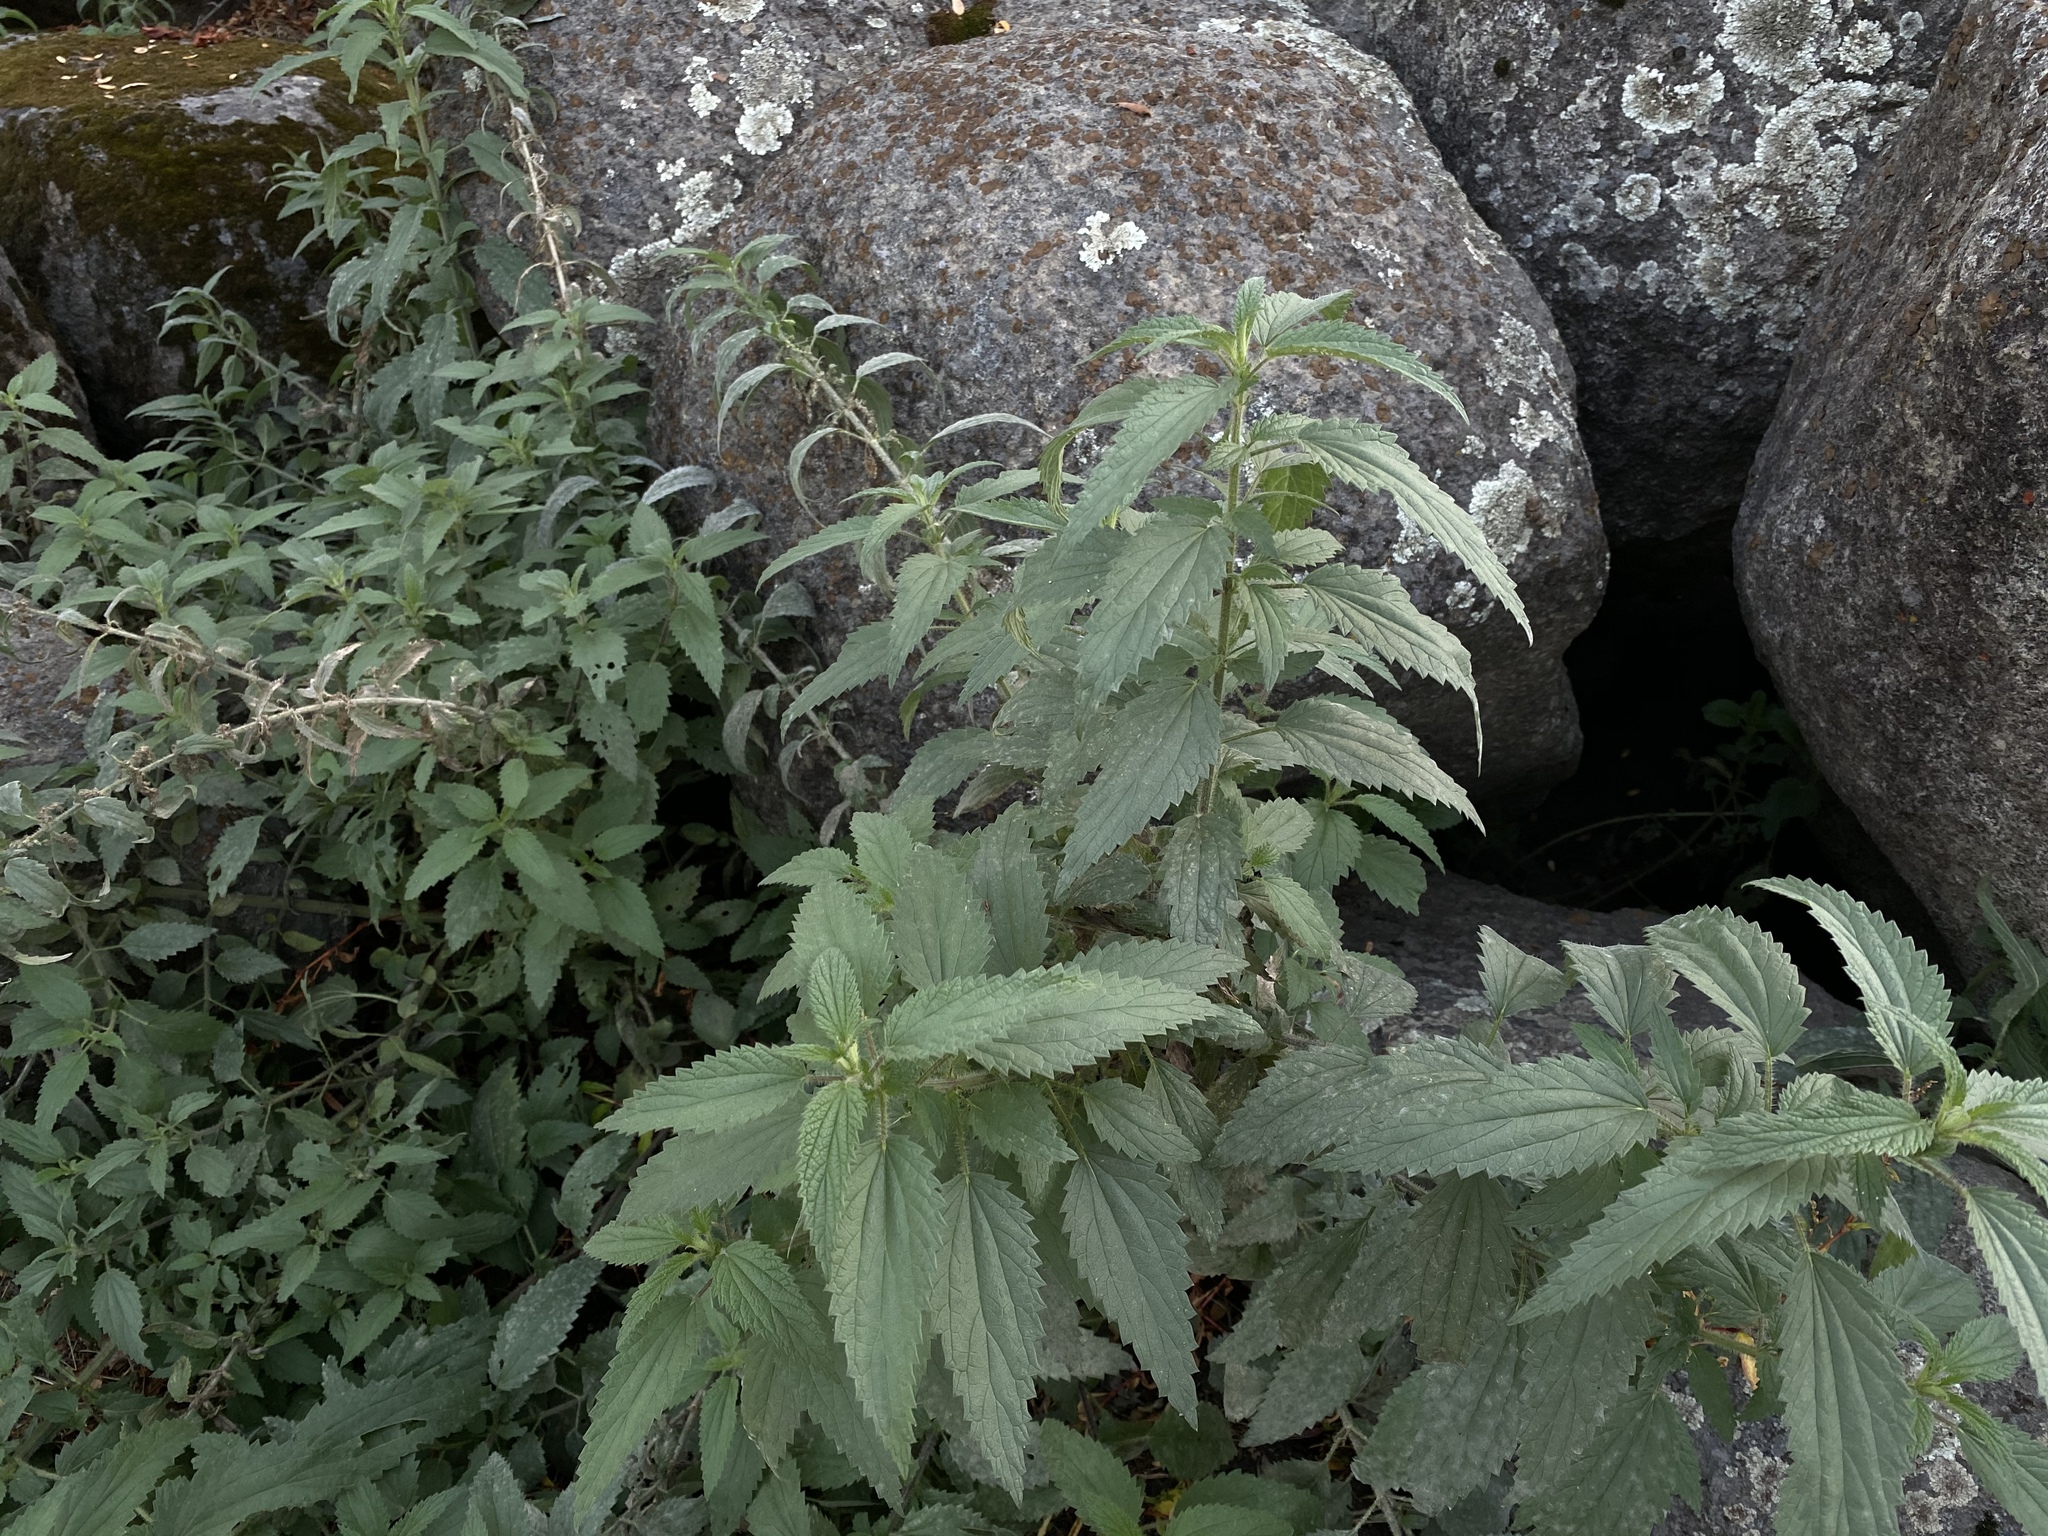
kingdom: Plantae
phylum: Tracheophyta
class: Magnoliopsida
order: Rosales
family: Urticaceae
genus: Urtica
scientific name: Urtica dioica
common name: Common nettle
